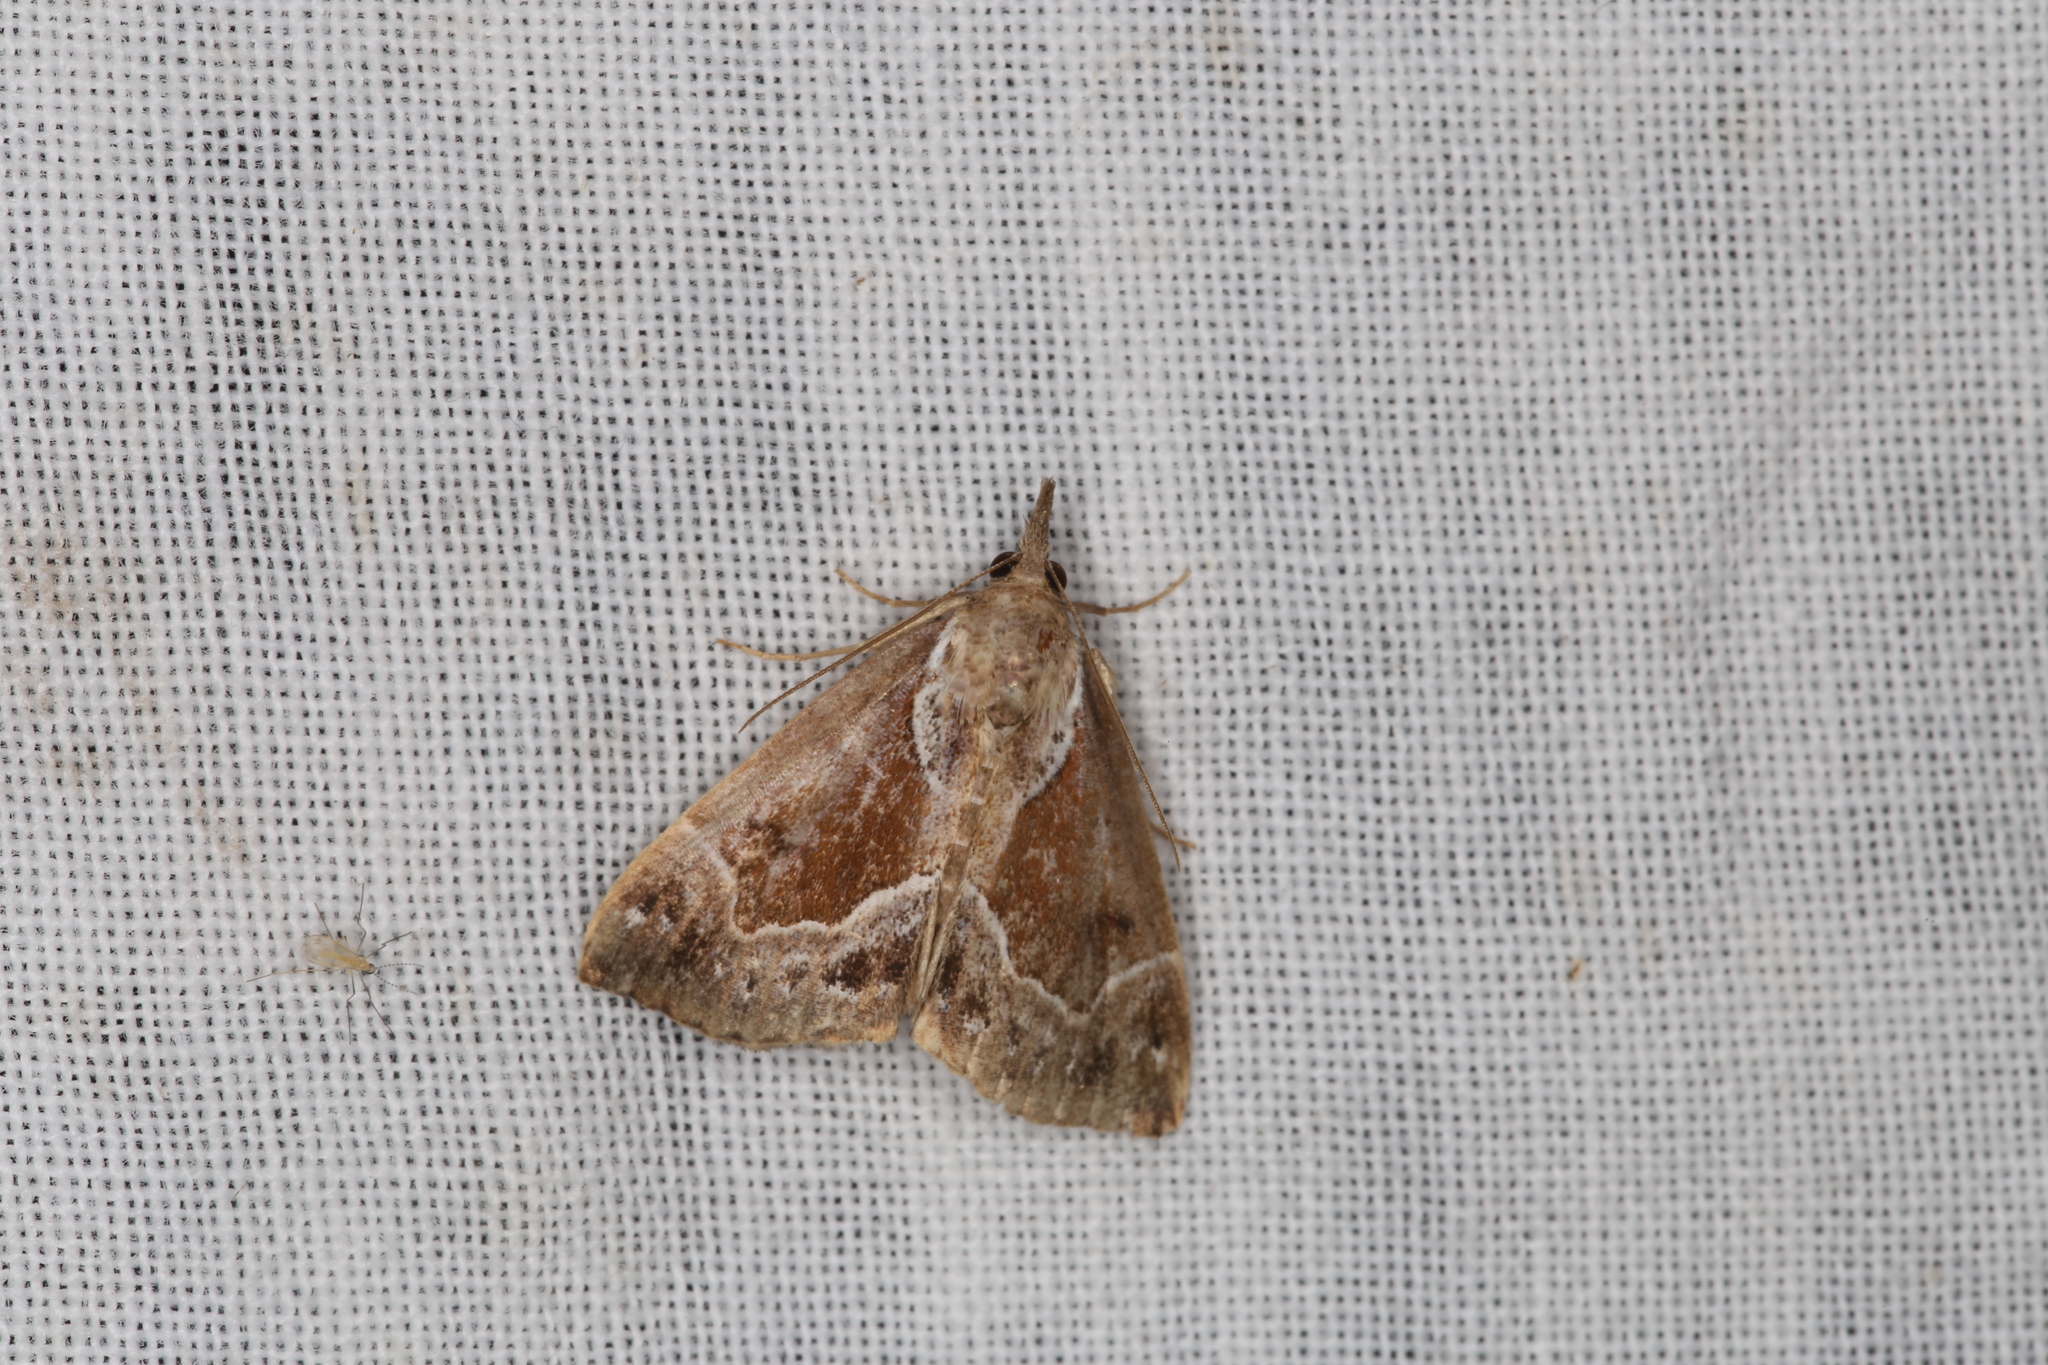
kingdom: Animalia
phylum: Arthropoda
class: Insecta
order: Lepidoptera
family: Erebidae
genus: Hypena
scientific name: Hypena crassalis
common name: Beautiful snout
